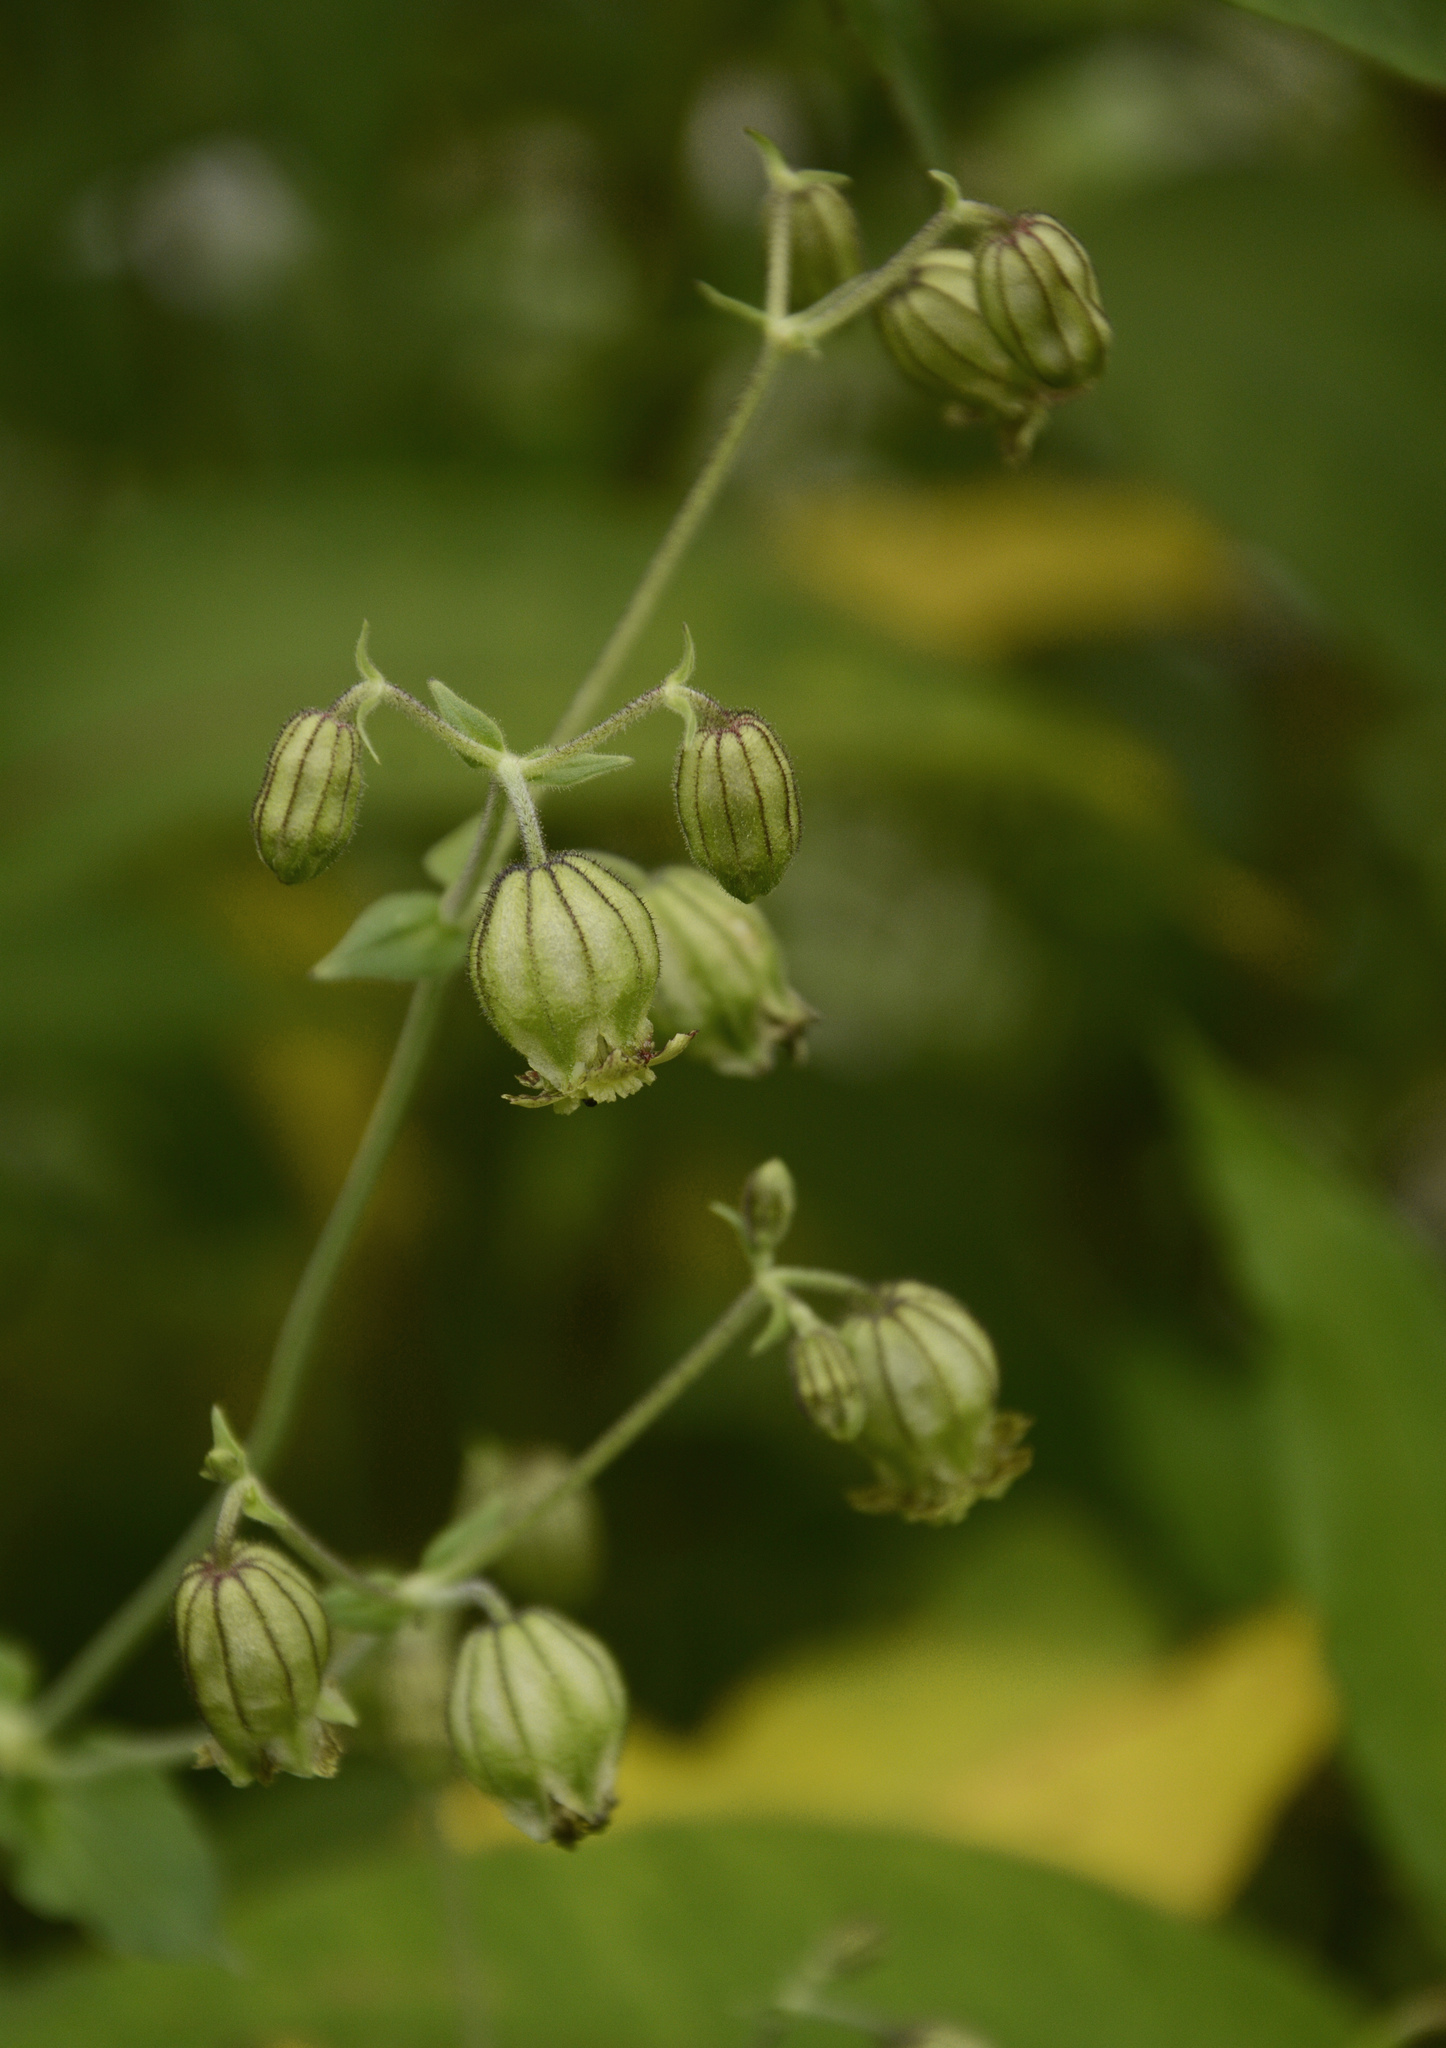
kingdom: Plantae
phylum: Tracheophyta
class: Magnoliopsida
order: Caryophyllales
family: Caryophyllaceae
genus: Silene
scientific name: Silene indica
